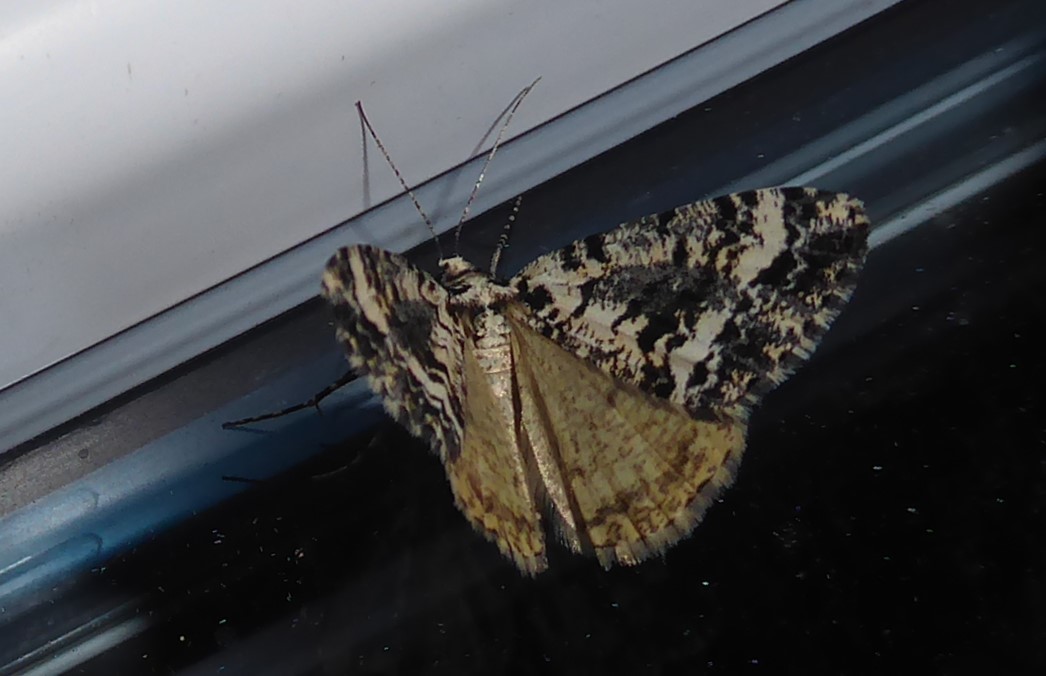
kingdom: Animalia
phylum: Arthropoda
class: Insecta
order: Lepidoptera
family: Geometridae
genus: Pseudocoremia
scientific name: Pseudocoremia leucelaea
